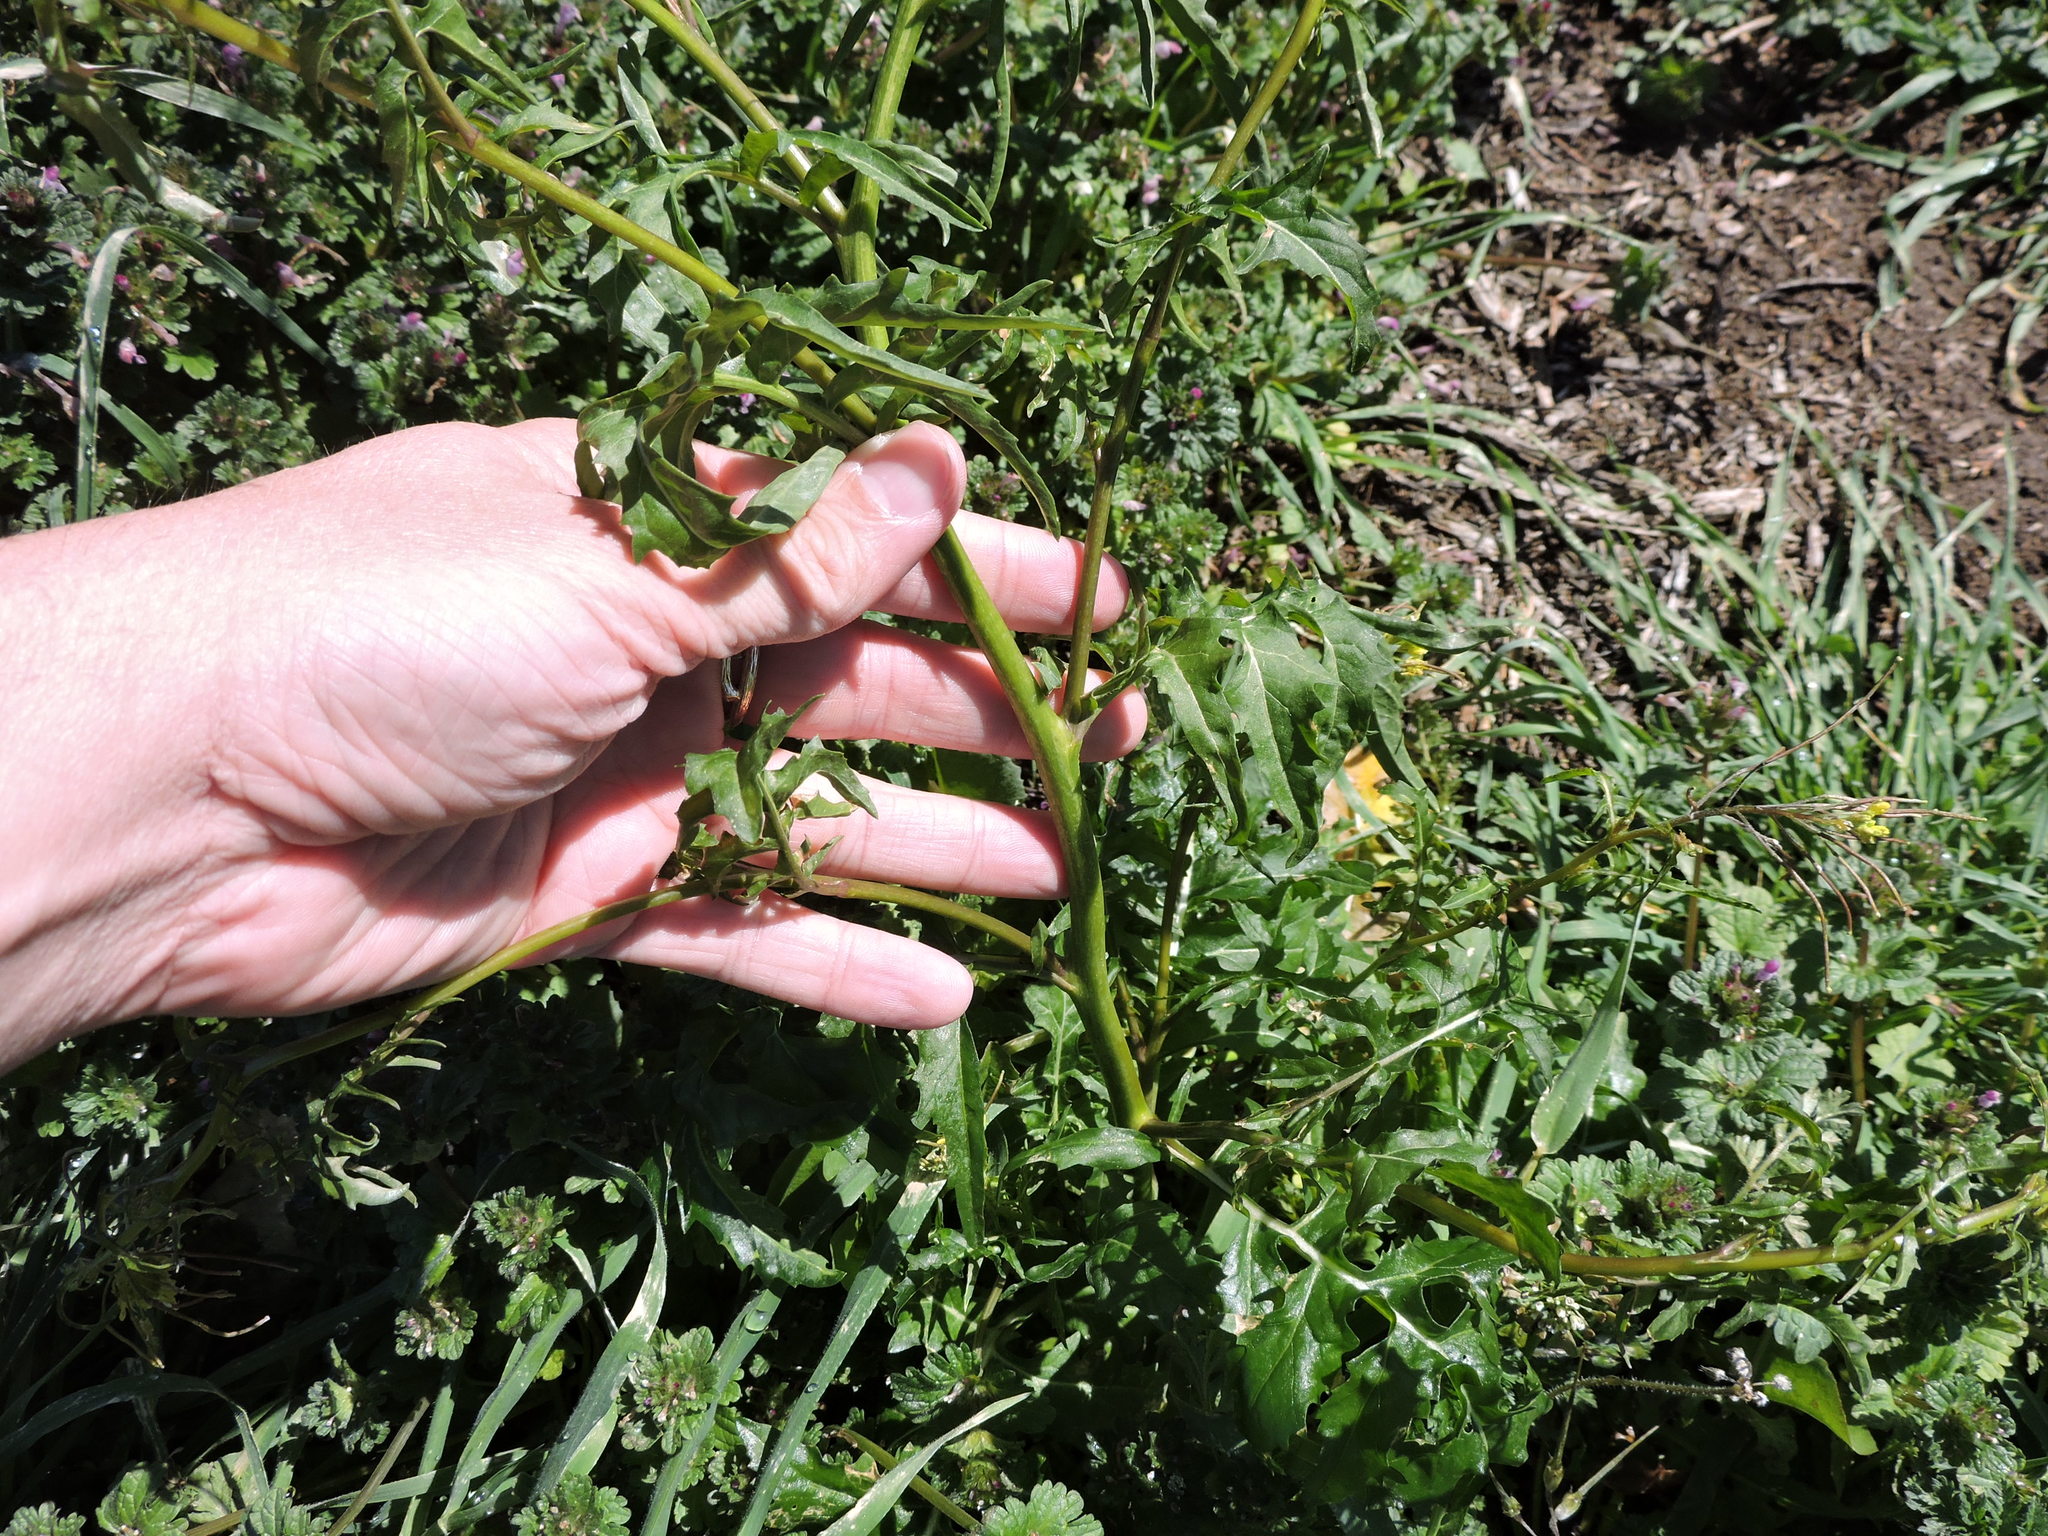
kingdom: Plantae
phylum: Tracheophyta
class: Magnoliopsida
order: Brassicales
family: Brassicaceae
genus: Sisymbrium
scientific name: Sisymbrium irio
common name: London rocket
